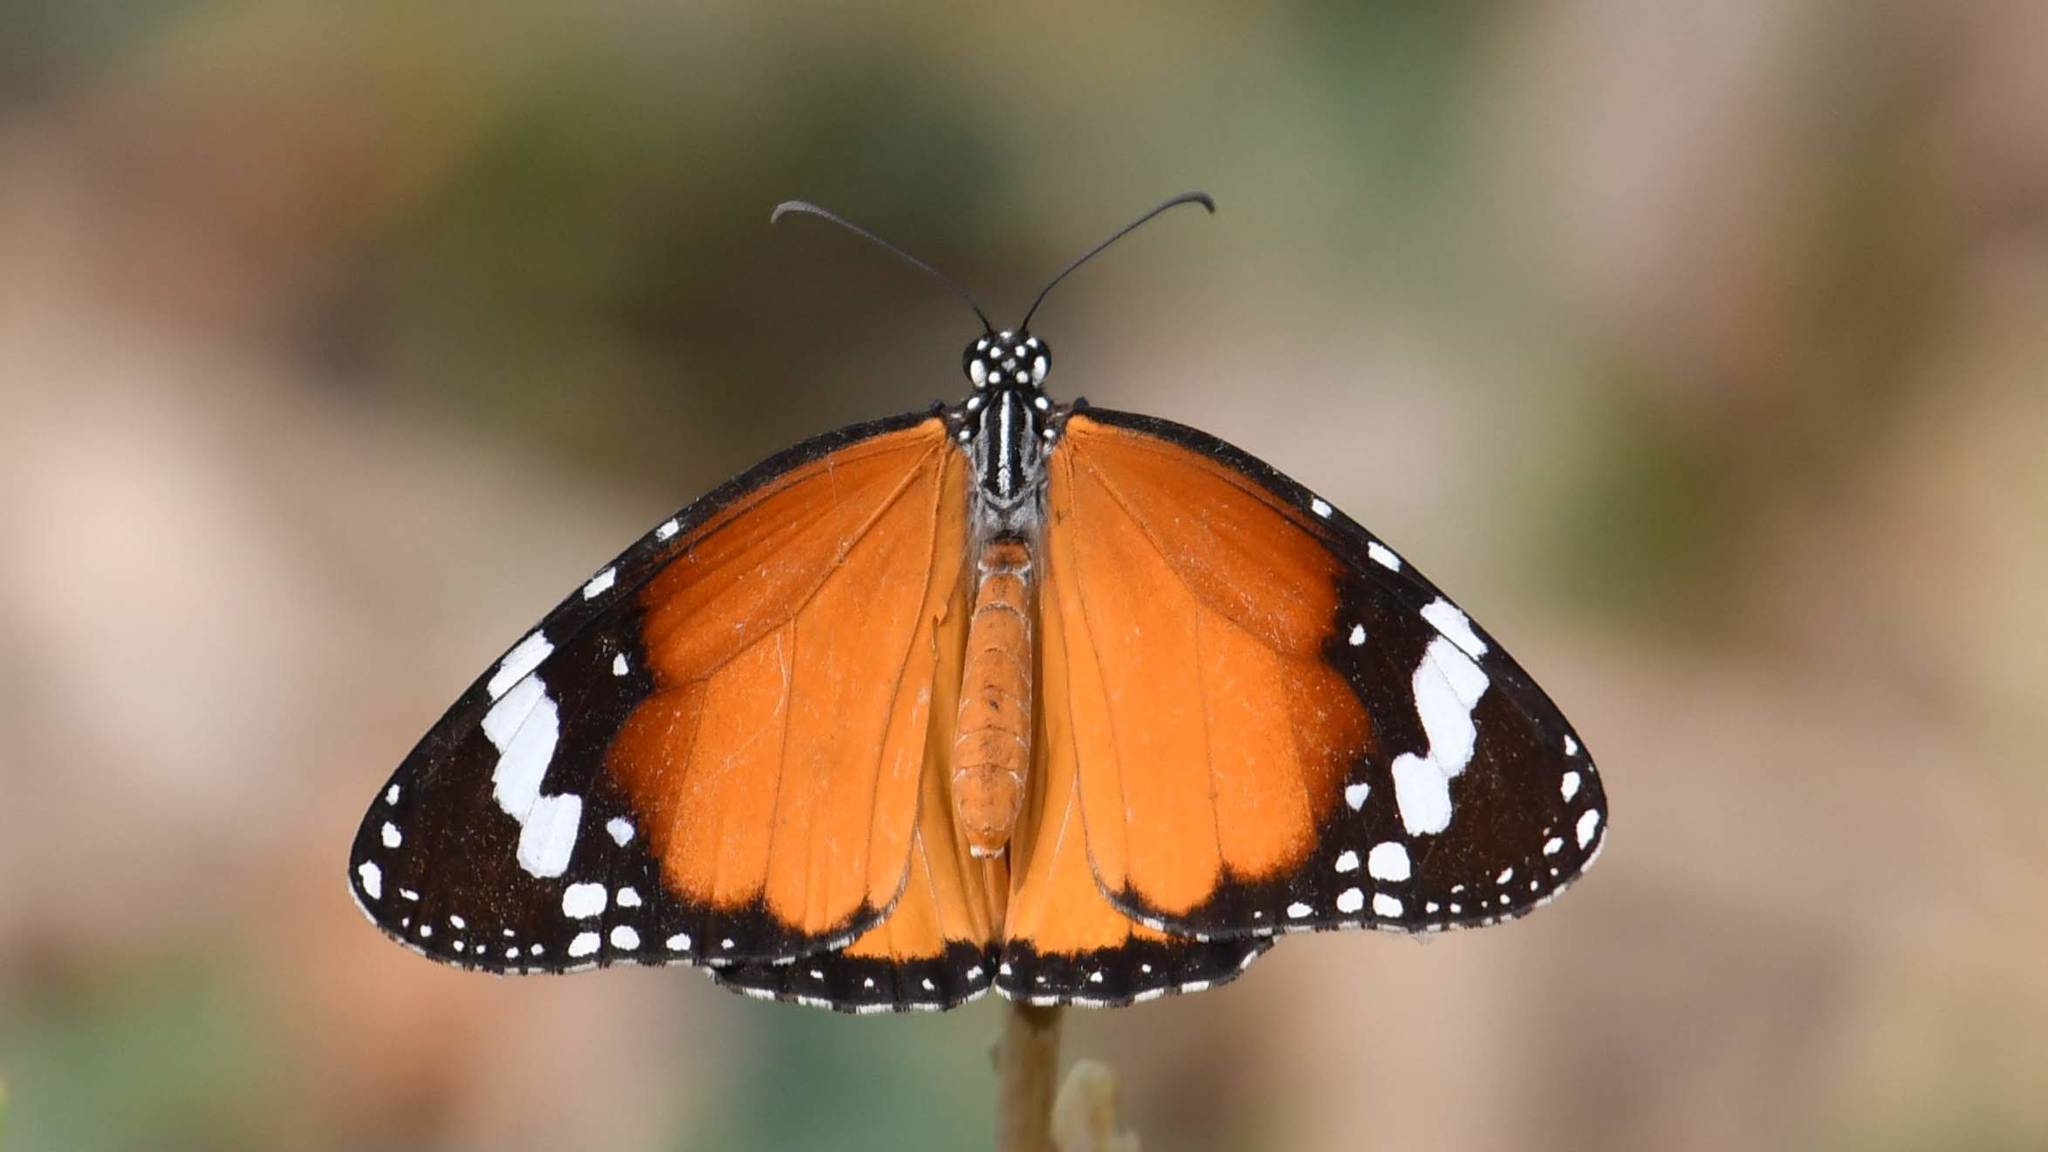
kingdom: Animalia
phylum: Arthropoda
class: Insecta
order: Lepidoptera
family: Nymphalidae
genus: Danaus
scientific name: Danaus chrysippus
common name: Plain tiger
